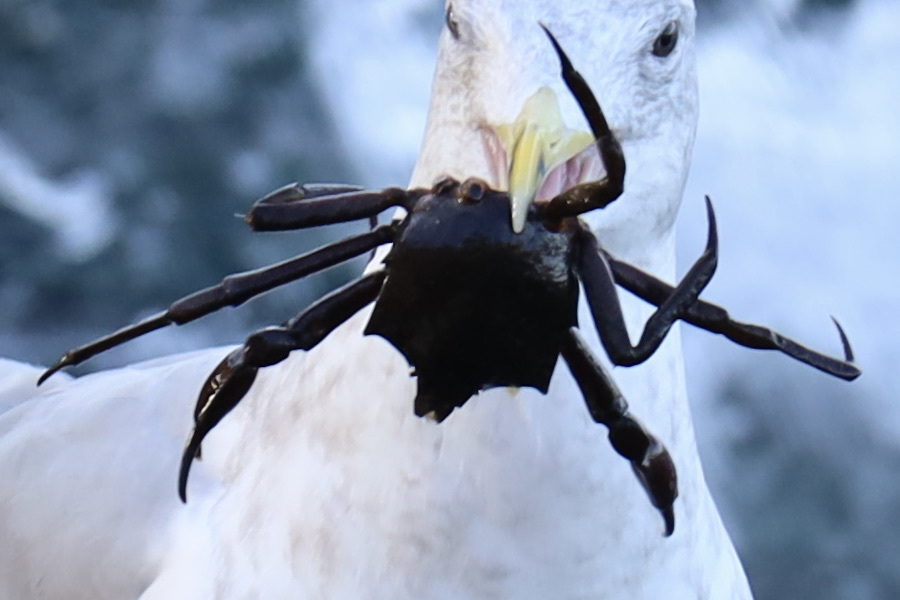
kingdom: Animalia
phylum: Arthropoda
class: Malacostraca
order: Decapoda
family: Epialtidae
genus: Pugettia
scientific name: Pugettia producta
